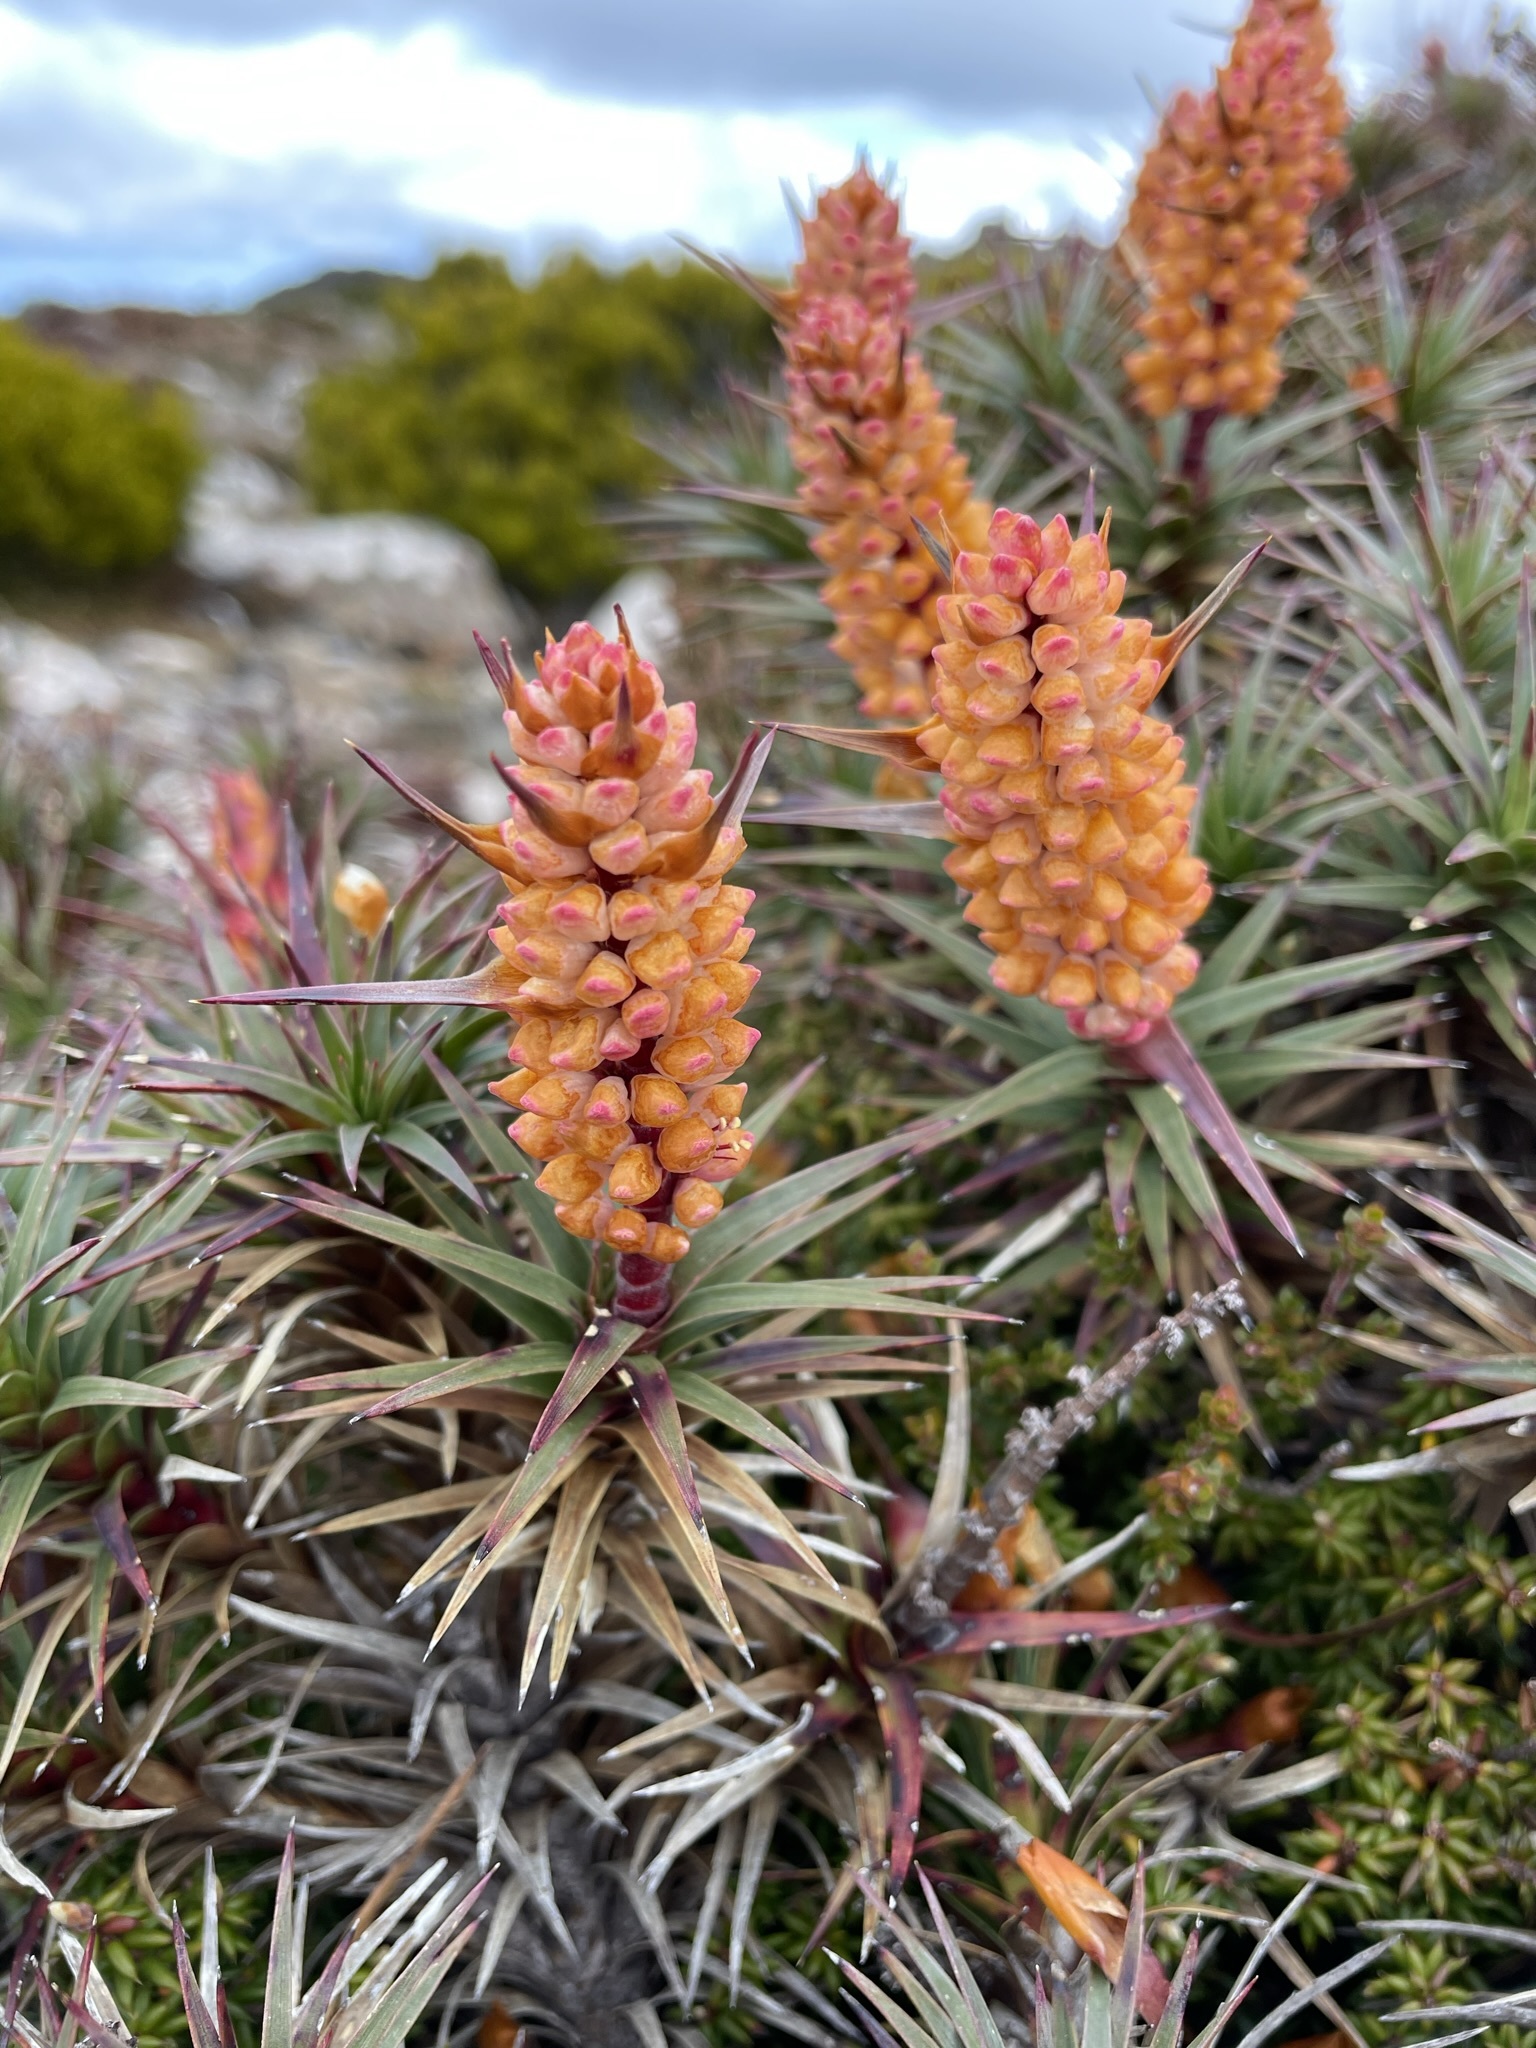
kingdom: Plantae
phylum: Tracheophyta
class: Magnoliopsida
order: Ericales
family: Ericaceae
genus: Dracophyllum
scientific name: Dracophyllum persistentifolium
